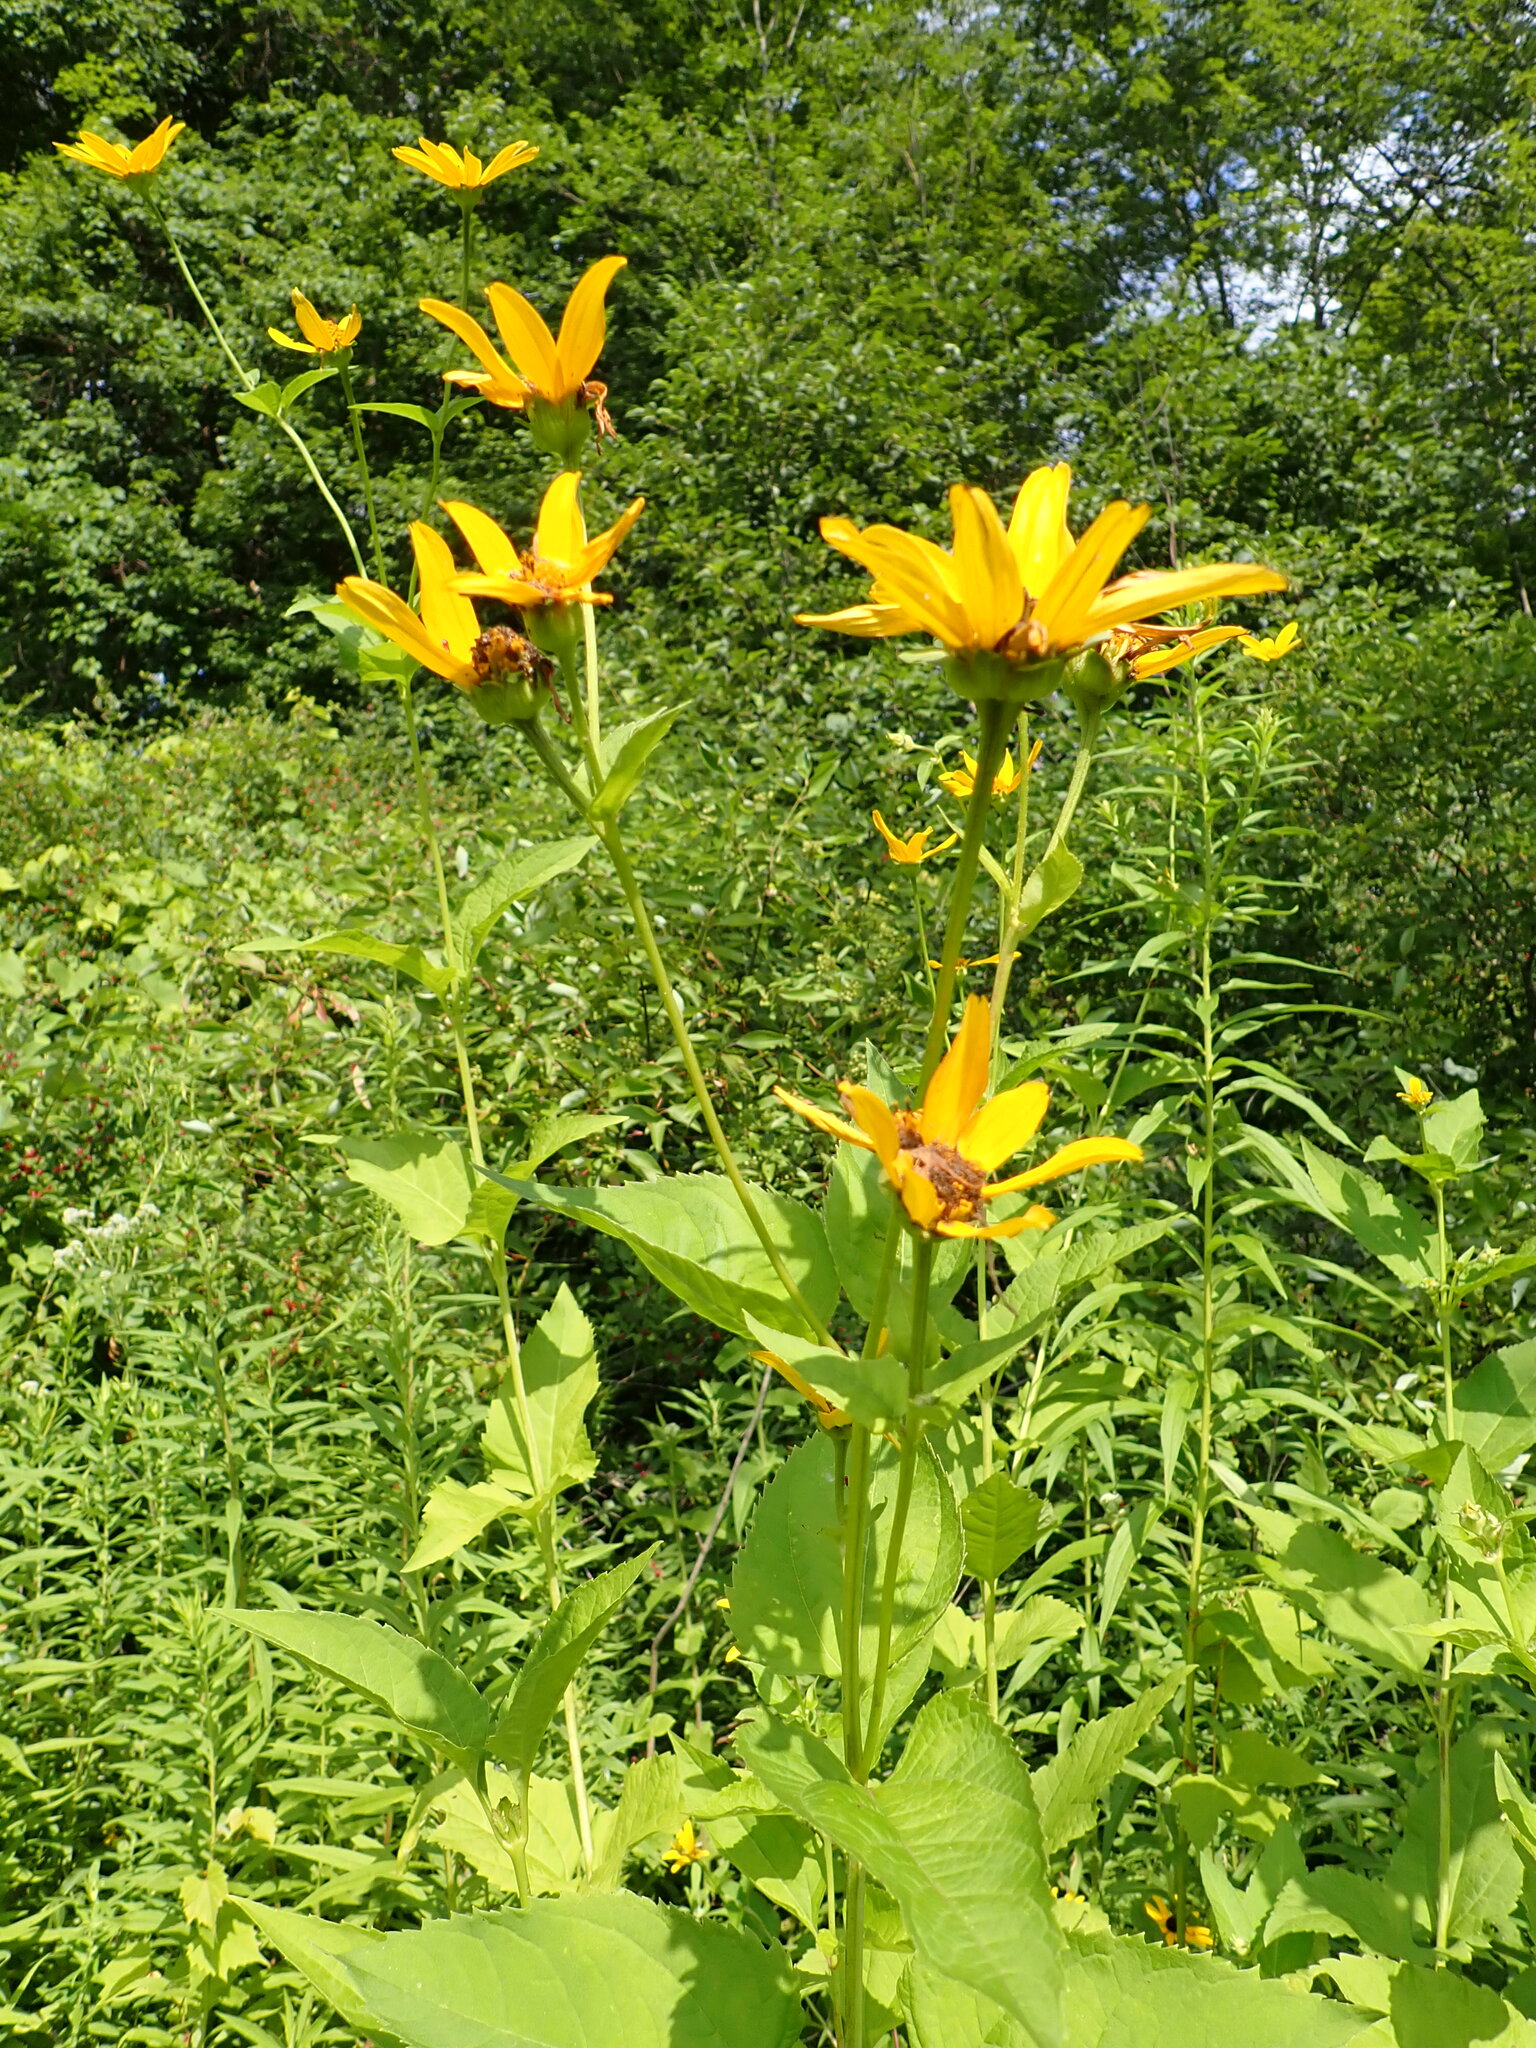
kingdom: Plantae
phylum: Tracheophyta
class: Magnoliopsida
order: Asterales
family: Asteraceae
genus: Heliopsis
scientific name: Heliopsis helianthoides
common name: False sunflower
